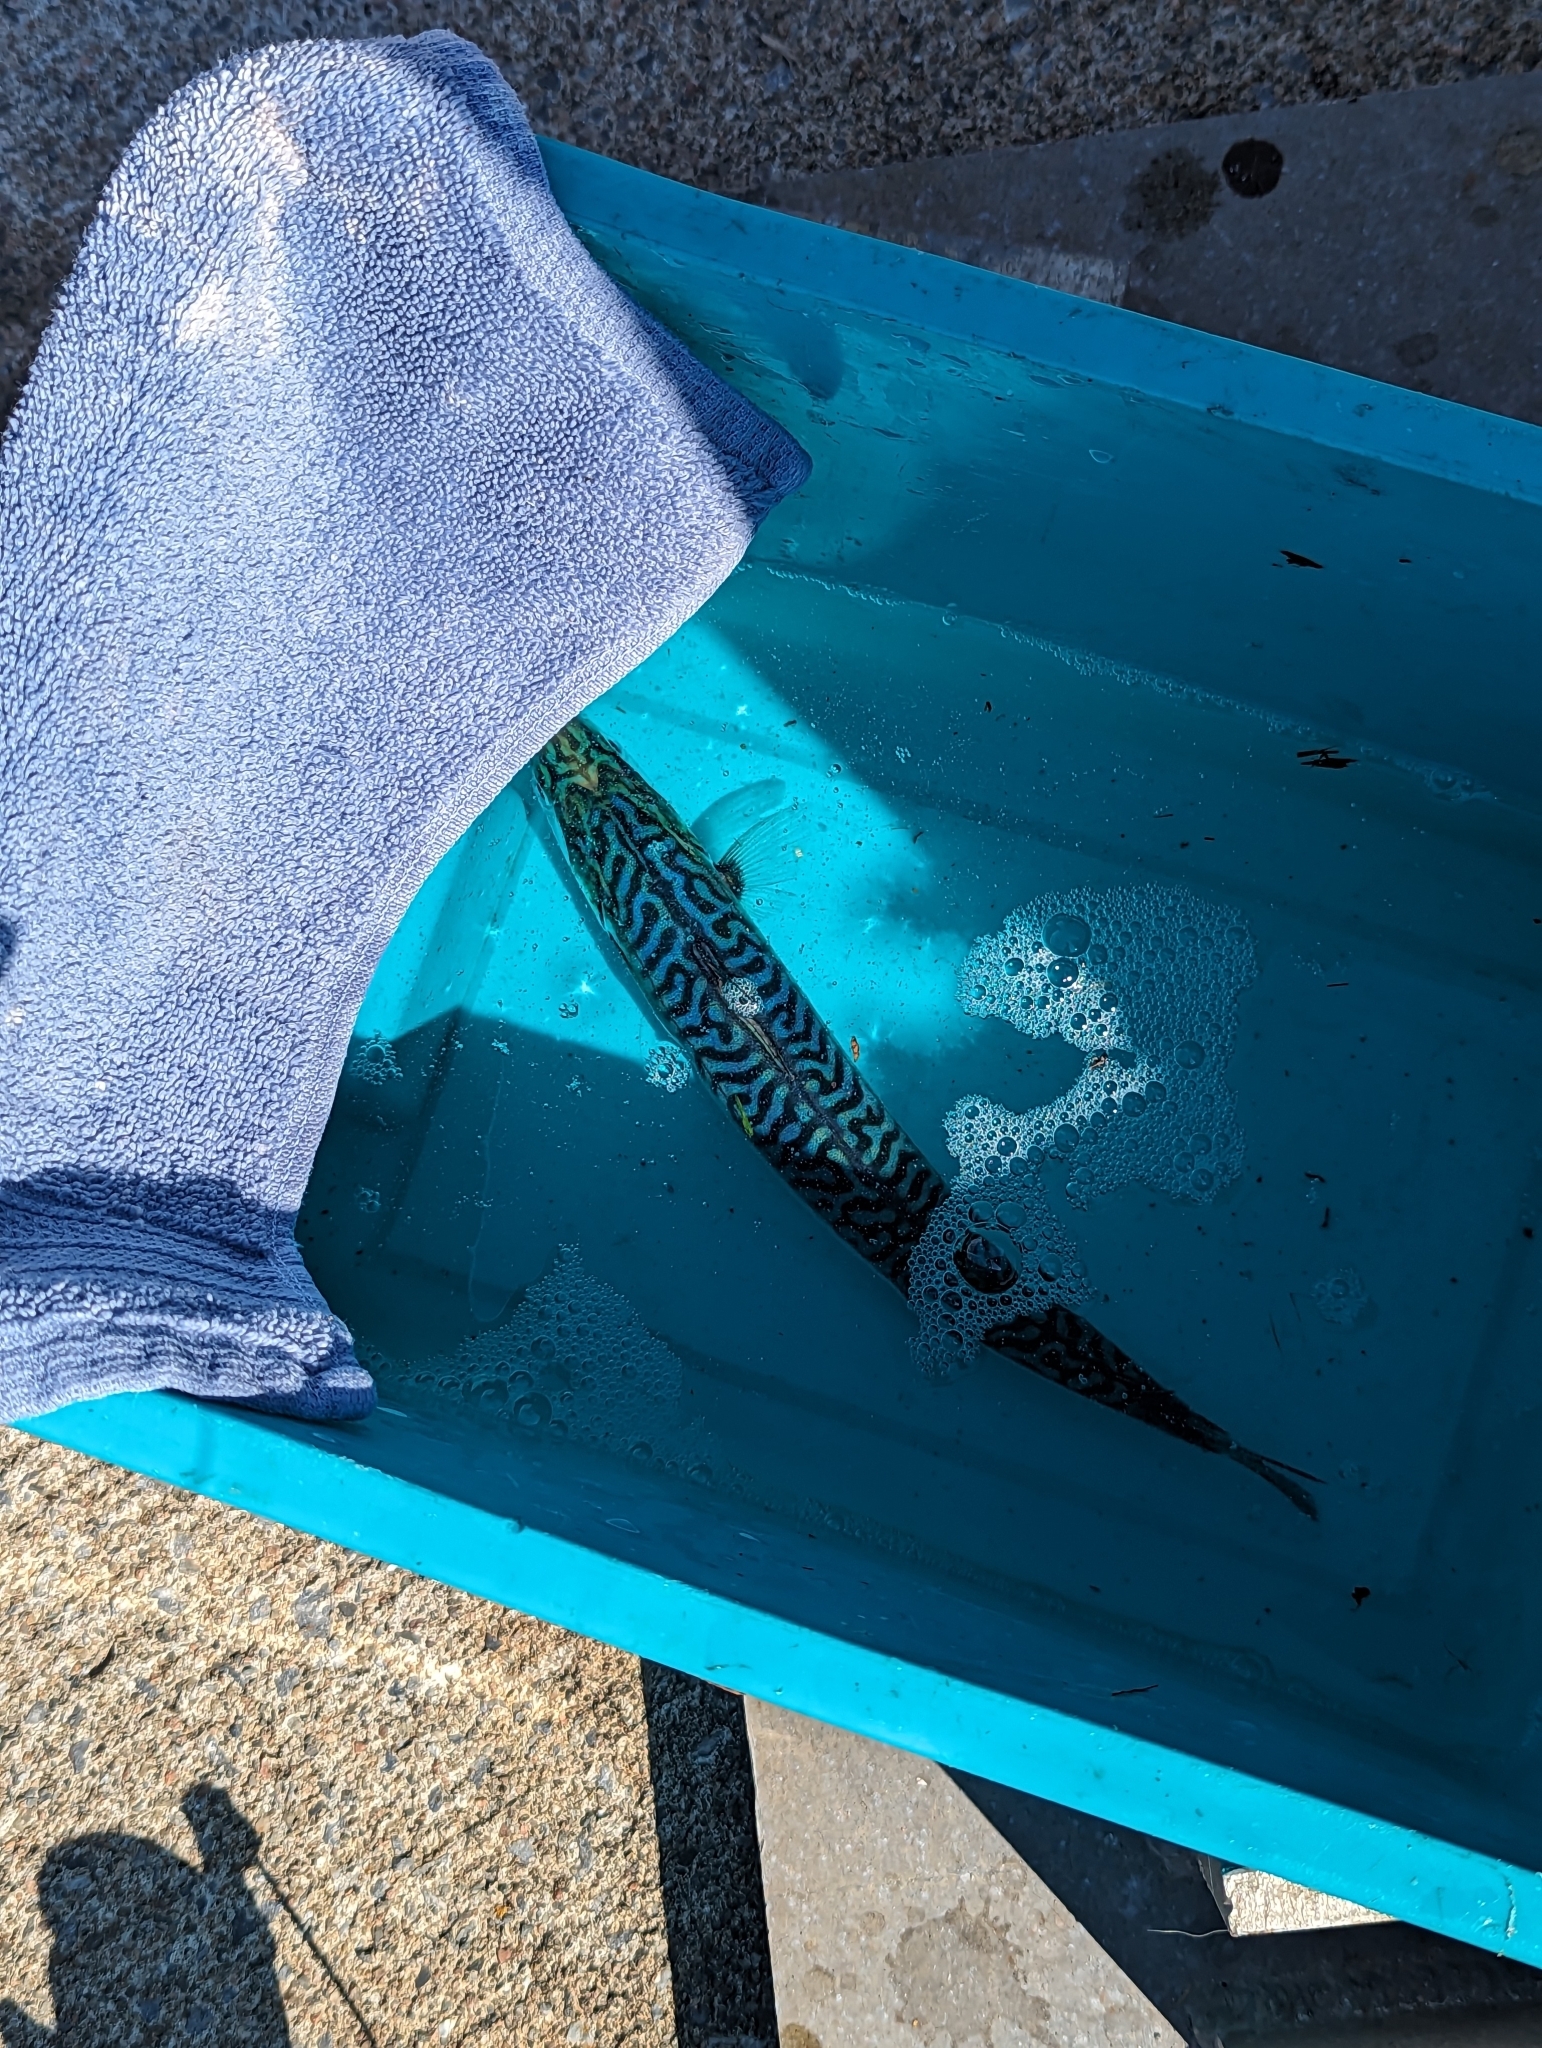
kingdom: Animalia
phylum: Chordata
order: Perciformes
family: Scombridae
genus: Scomber
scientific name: Scomber scombrus
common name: Mackerel
